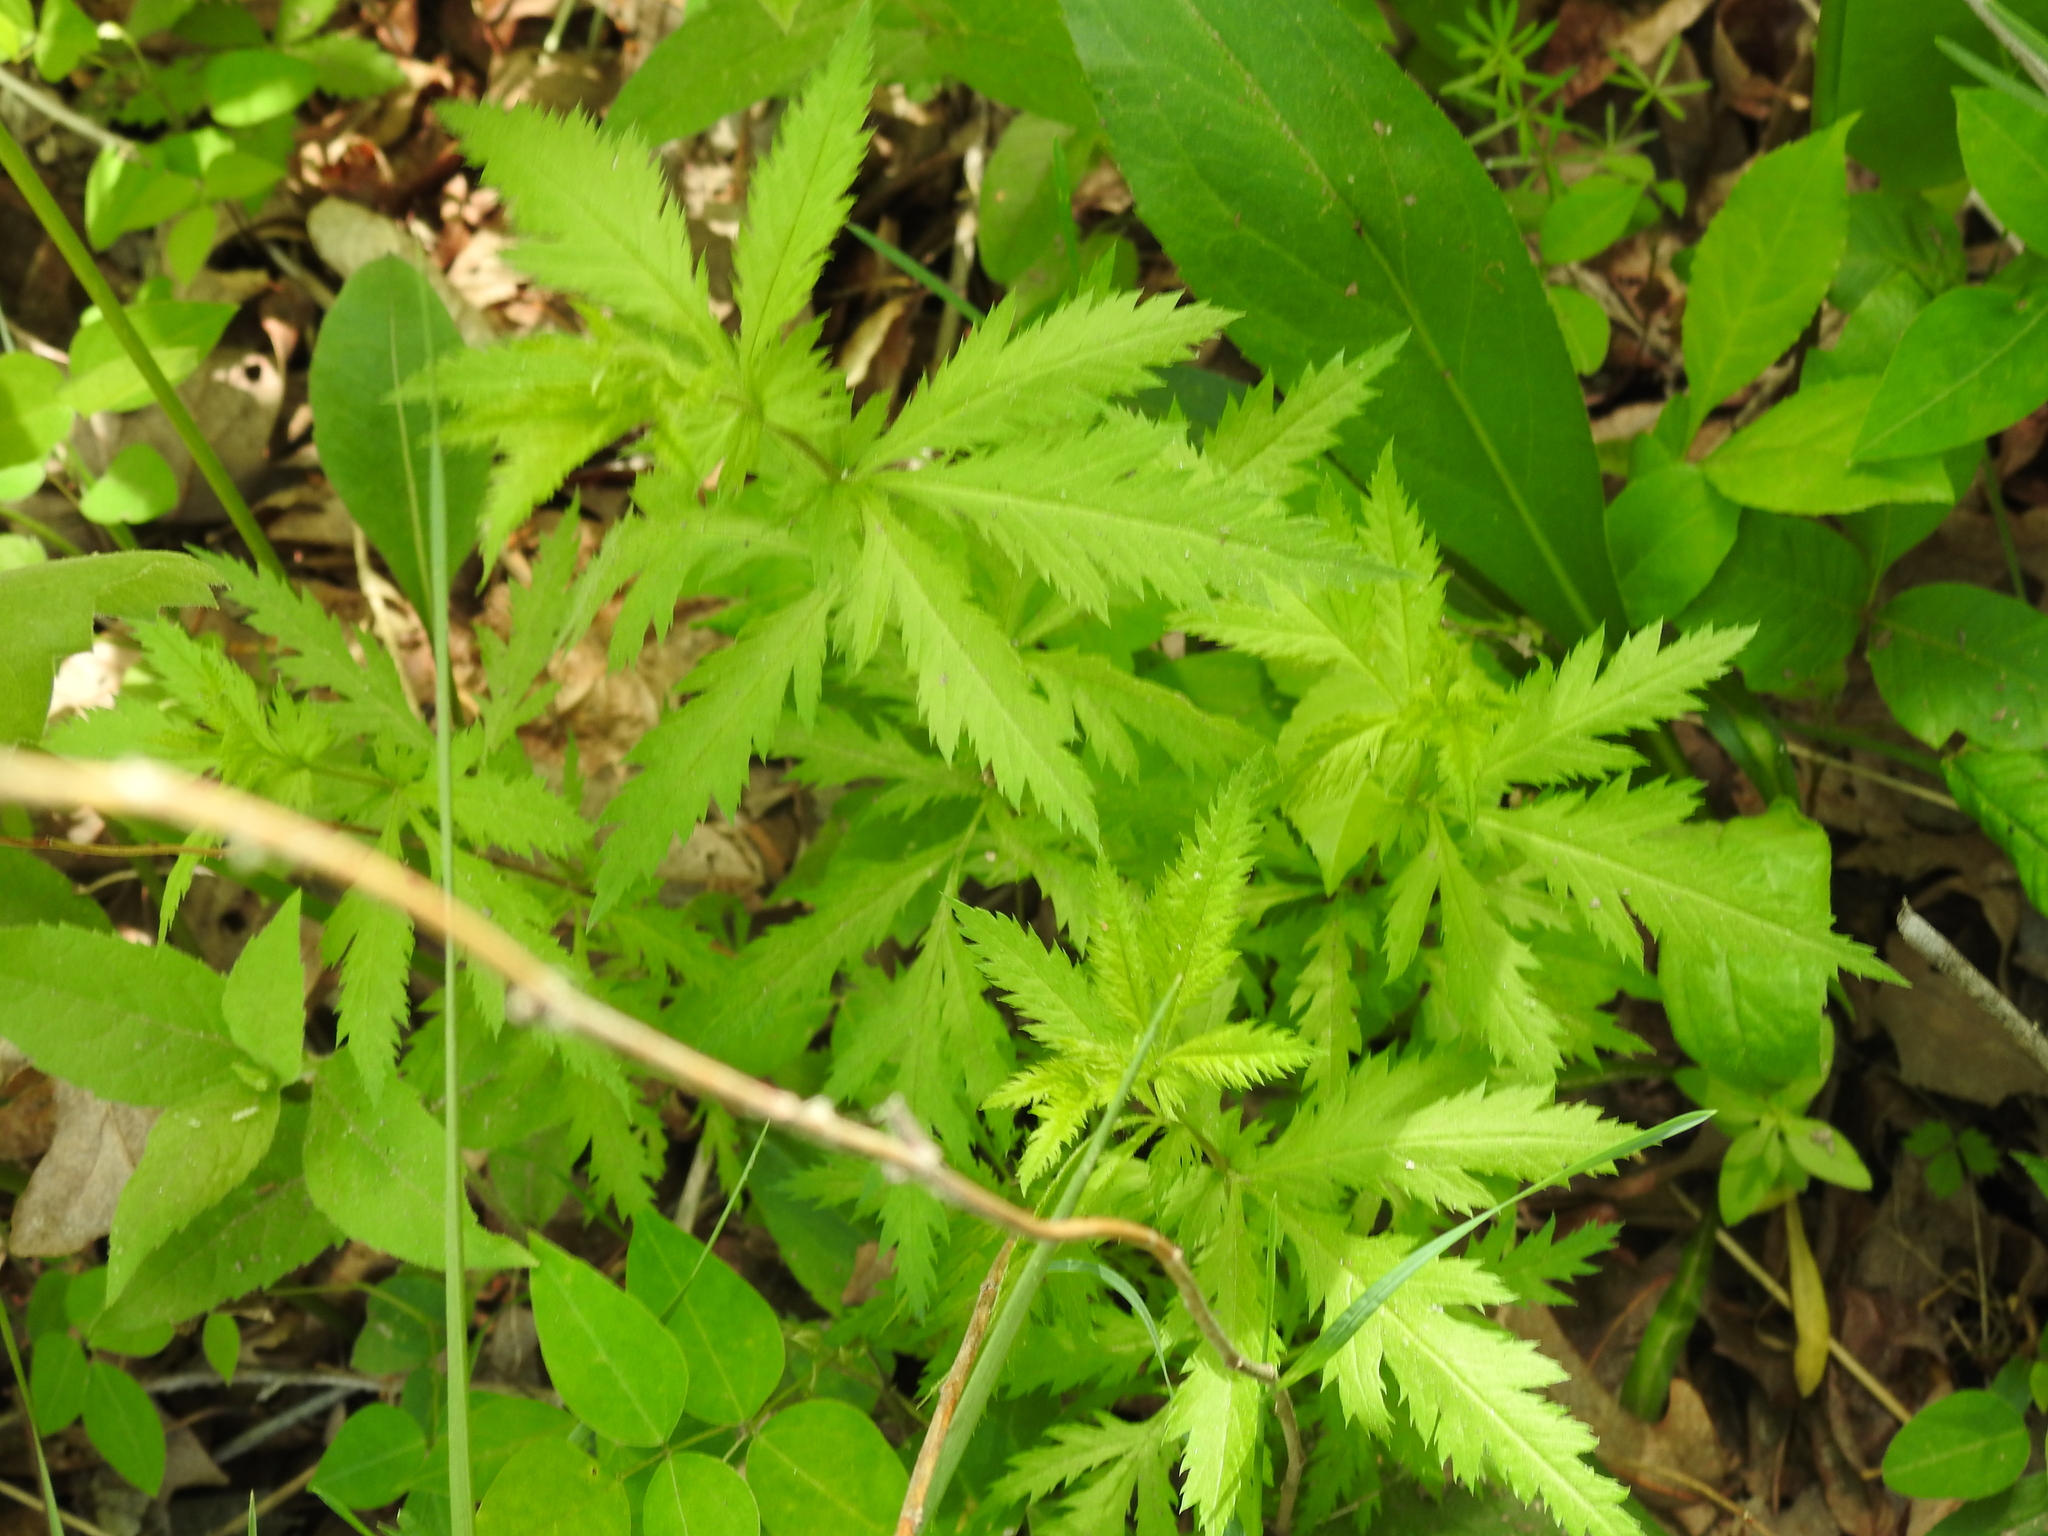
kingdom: Plantae
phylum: Tracheophyta
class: Magnoliopsida
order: Rosales
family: Rosaceae
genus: Gillenia
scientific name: Gillenia stipulata
